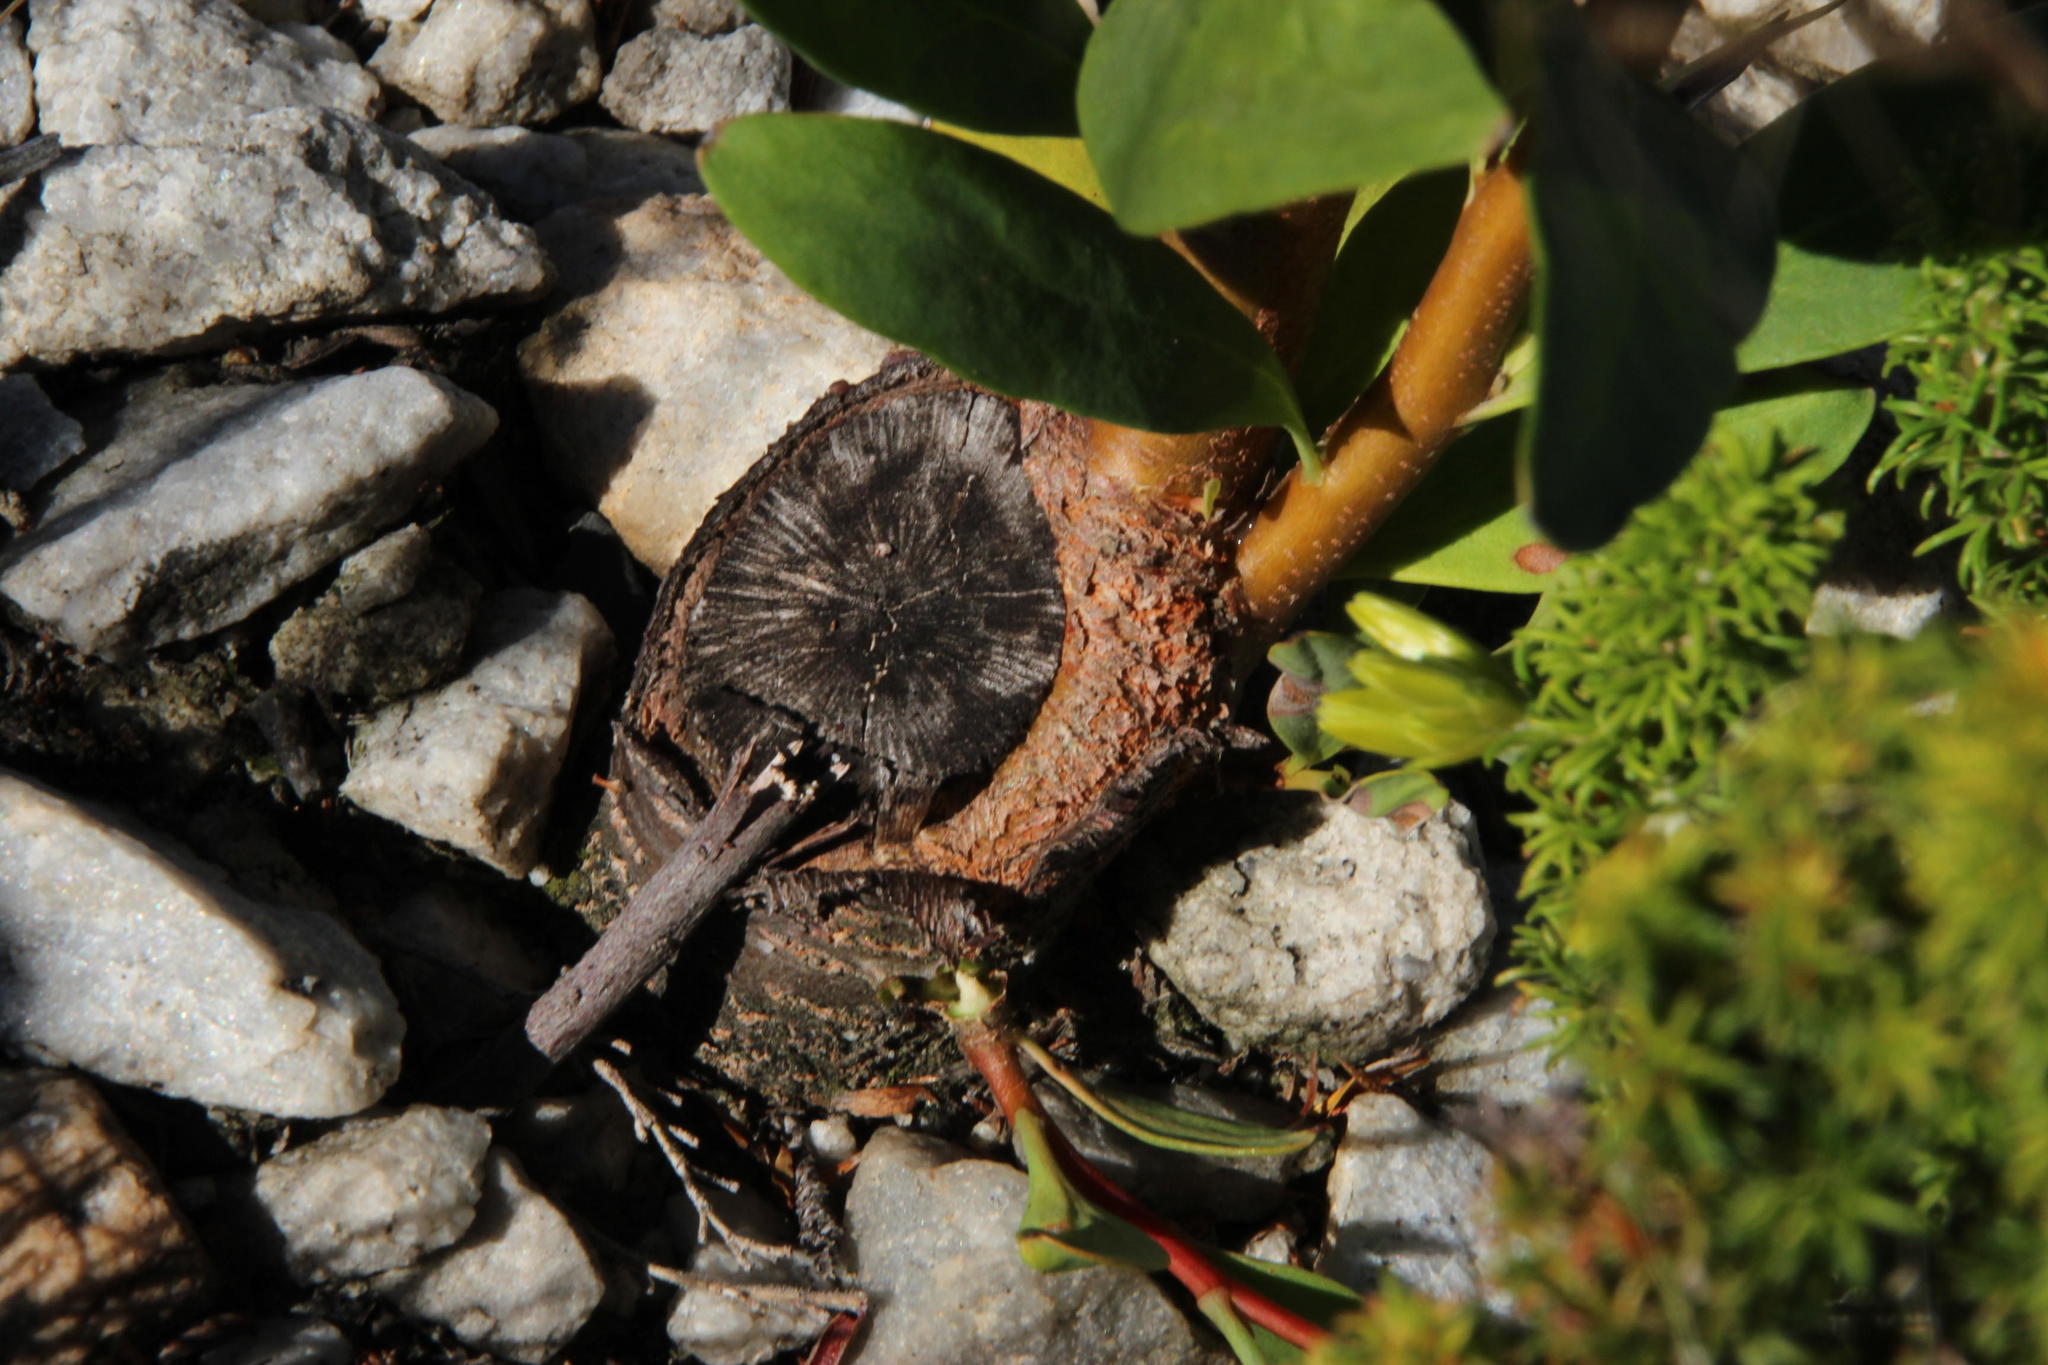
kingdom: Plantae
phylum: Tracheophyta
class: Magnoliopsida
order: Proteales
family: Proteaceae
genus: Hakea
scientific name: Hakea salicifolia
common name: Willow hakea
